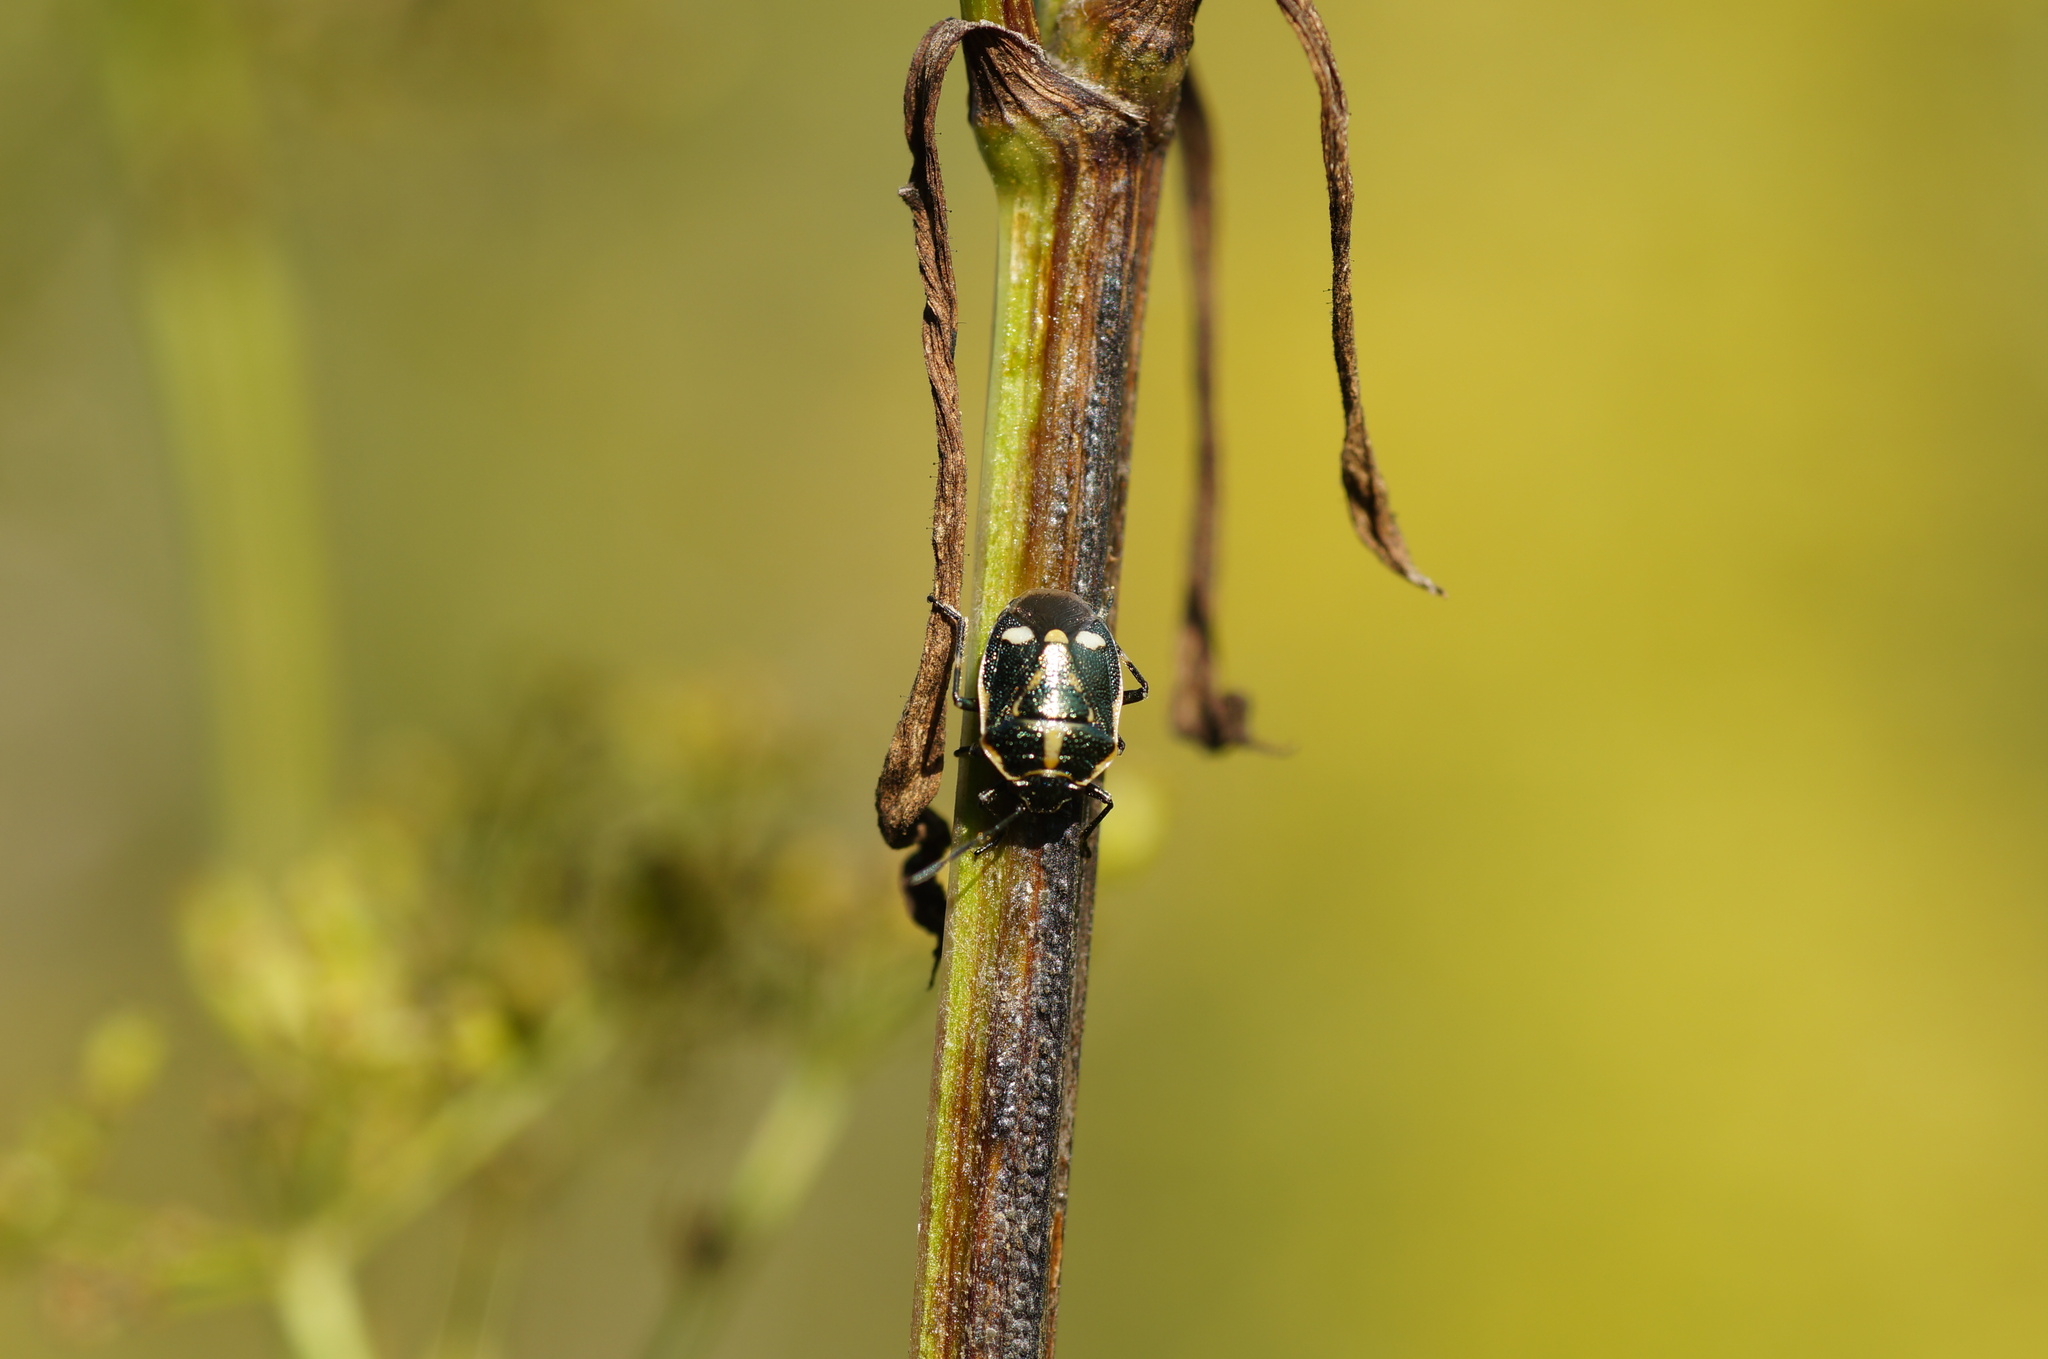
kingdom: Animalia
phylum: Arthropoda
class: Insecta
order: Hemiptera
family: Pentatomidae
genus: Eurydema
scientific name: Eurydema oleracea
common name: Cabbage bug
